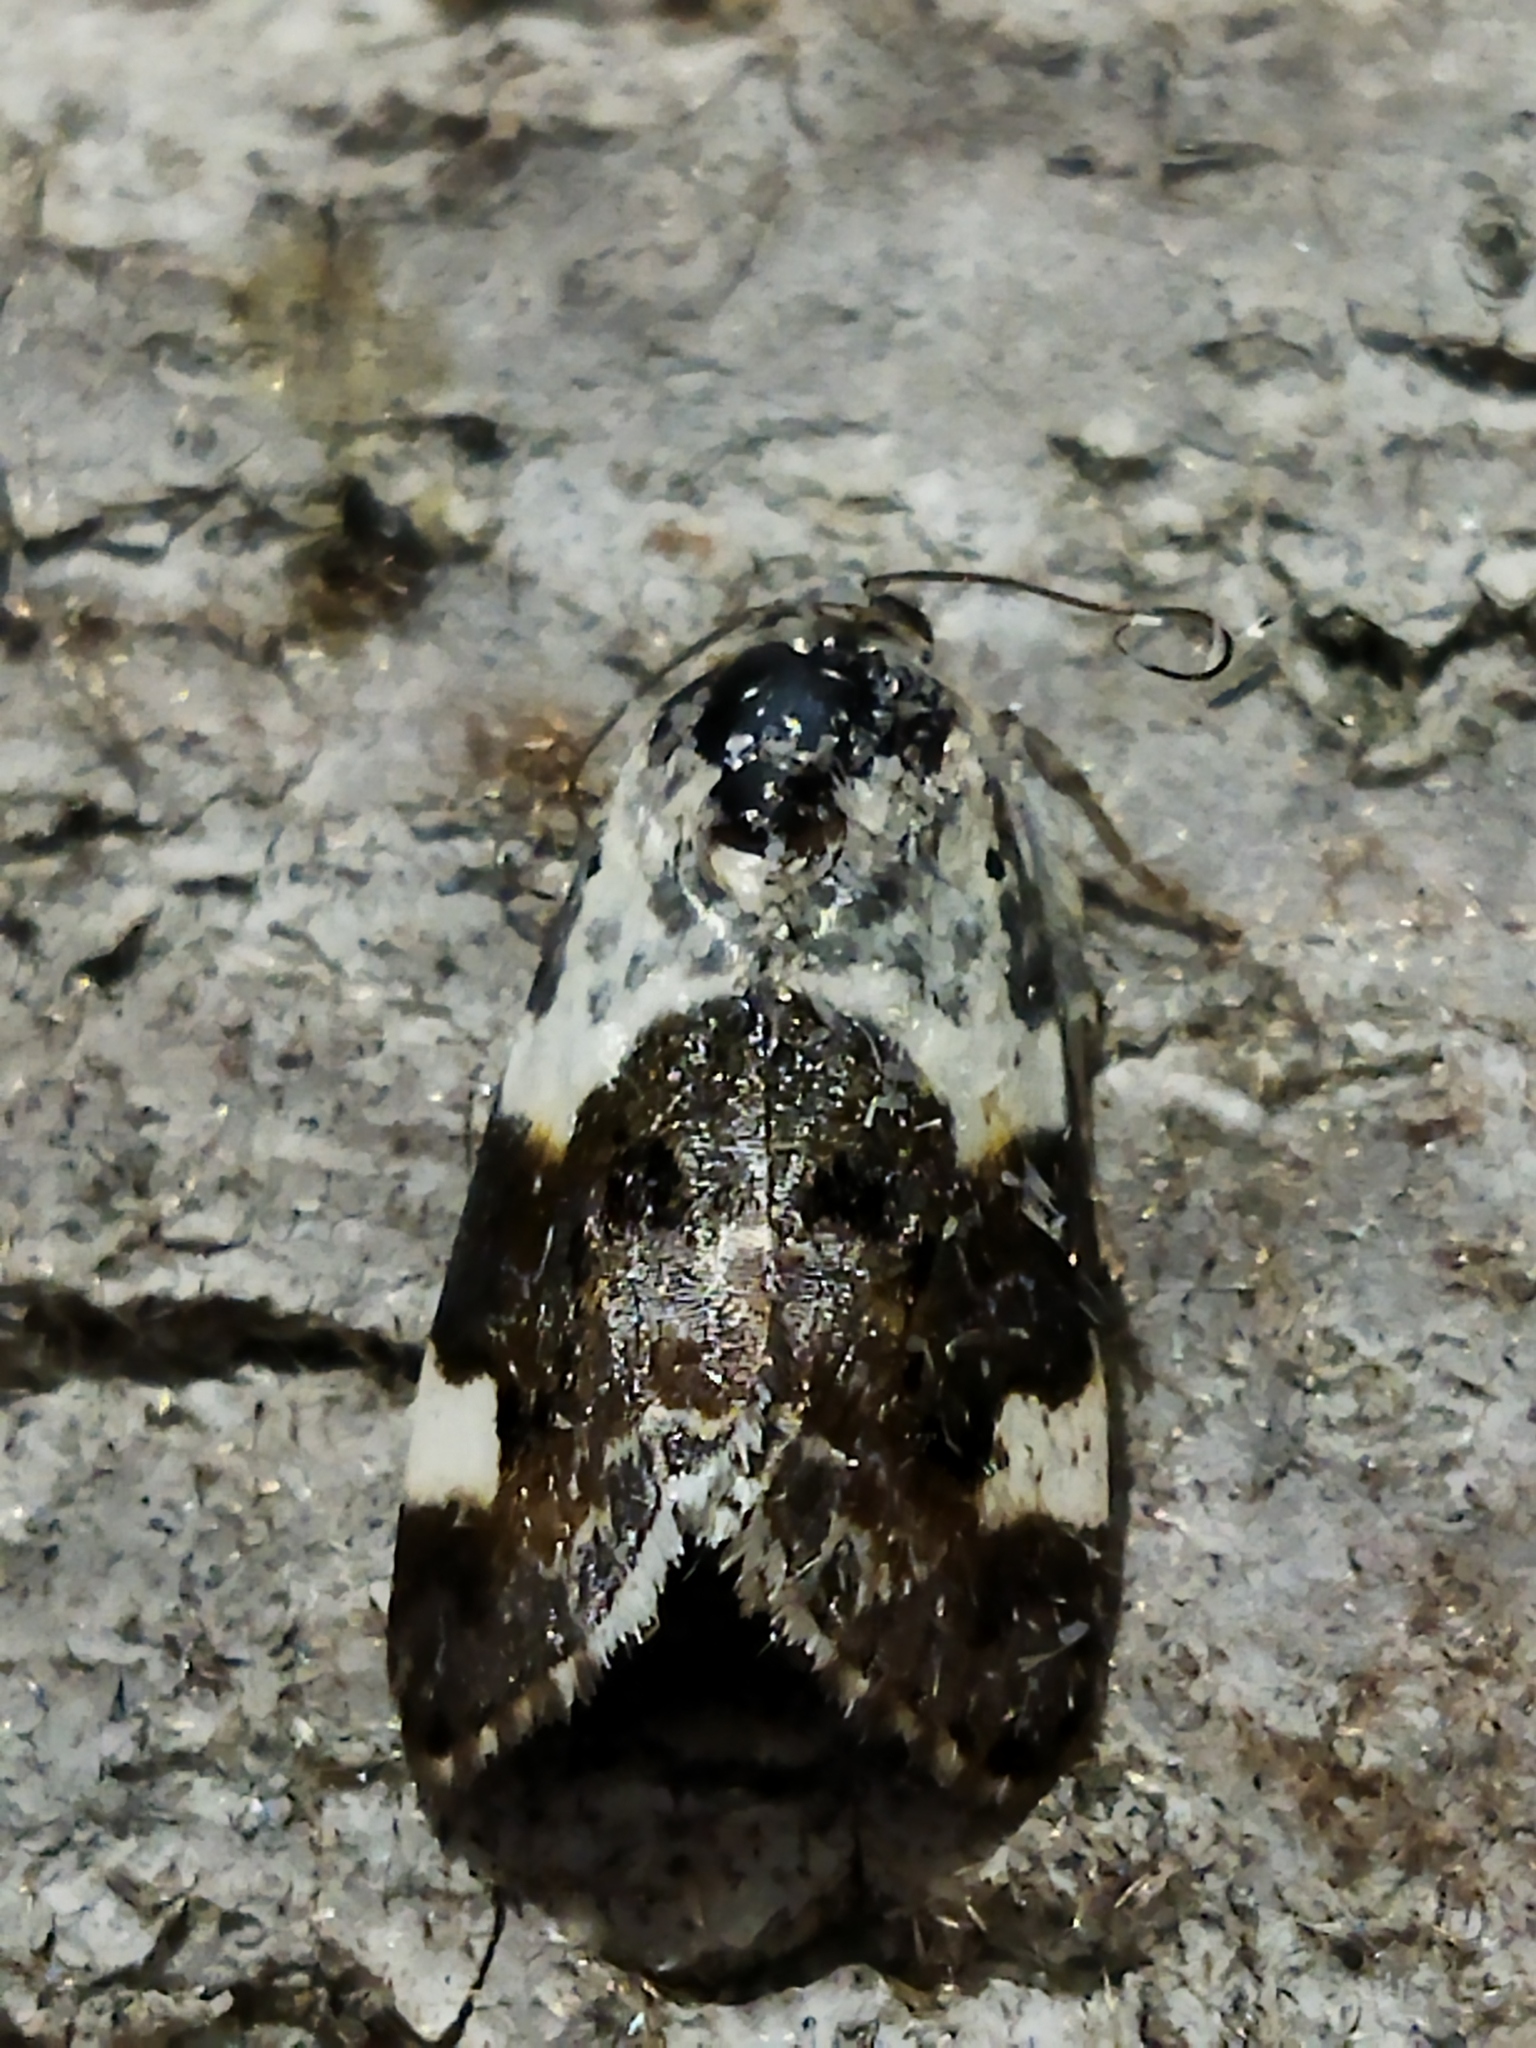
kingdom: Animalia
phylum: Arthropoda
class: Insecta
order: Lepidoptera
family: Noctuidae
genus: Acontia
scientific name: Acontia lucida
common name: Pale shoulder
